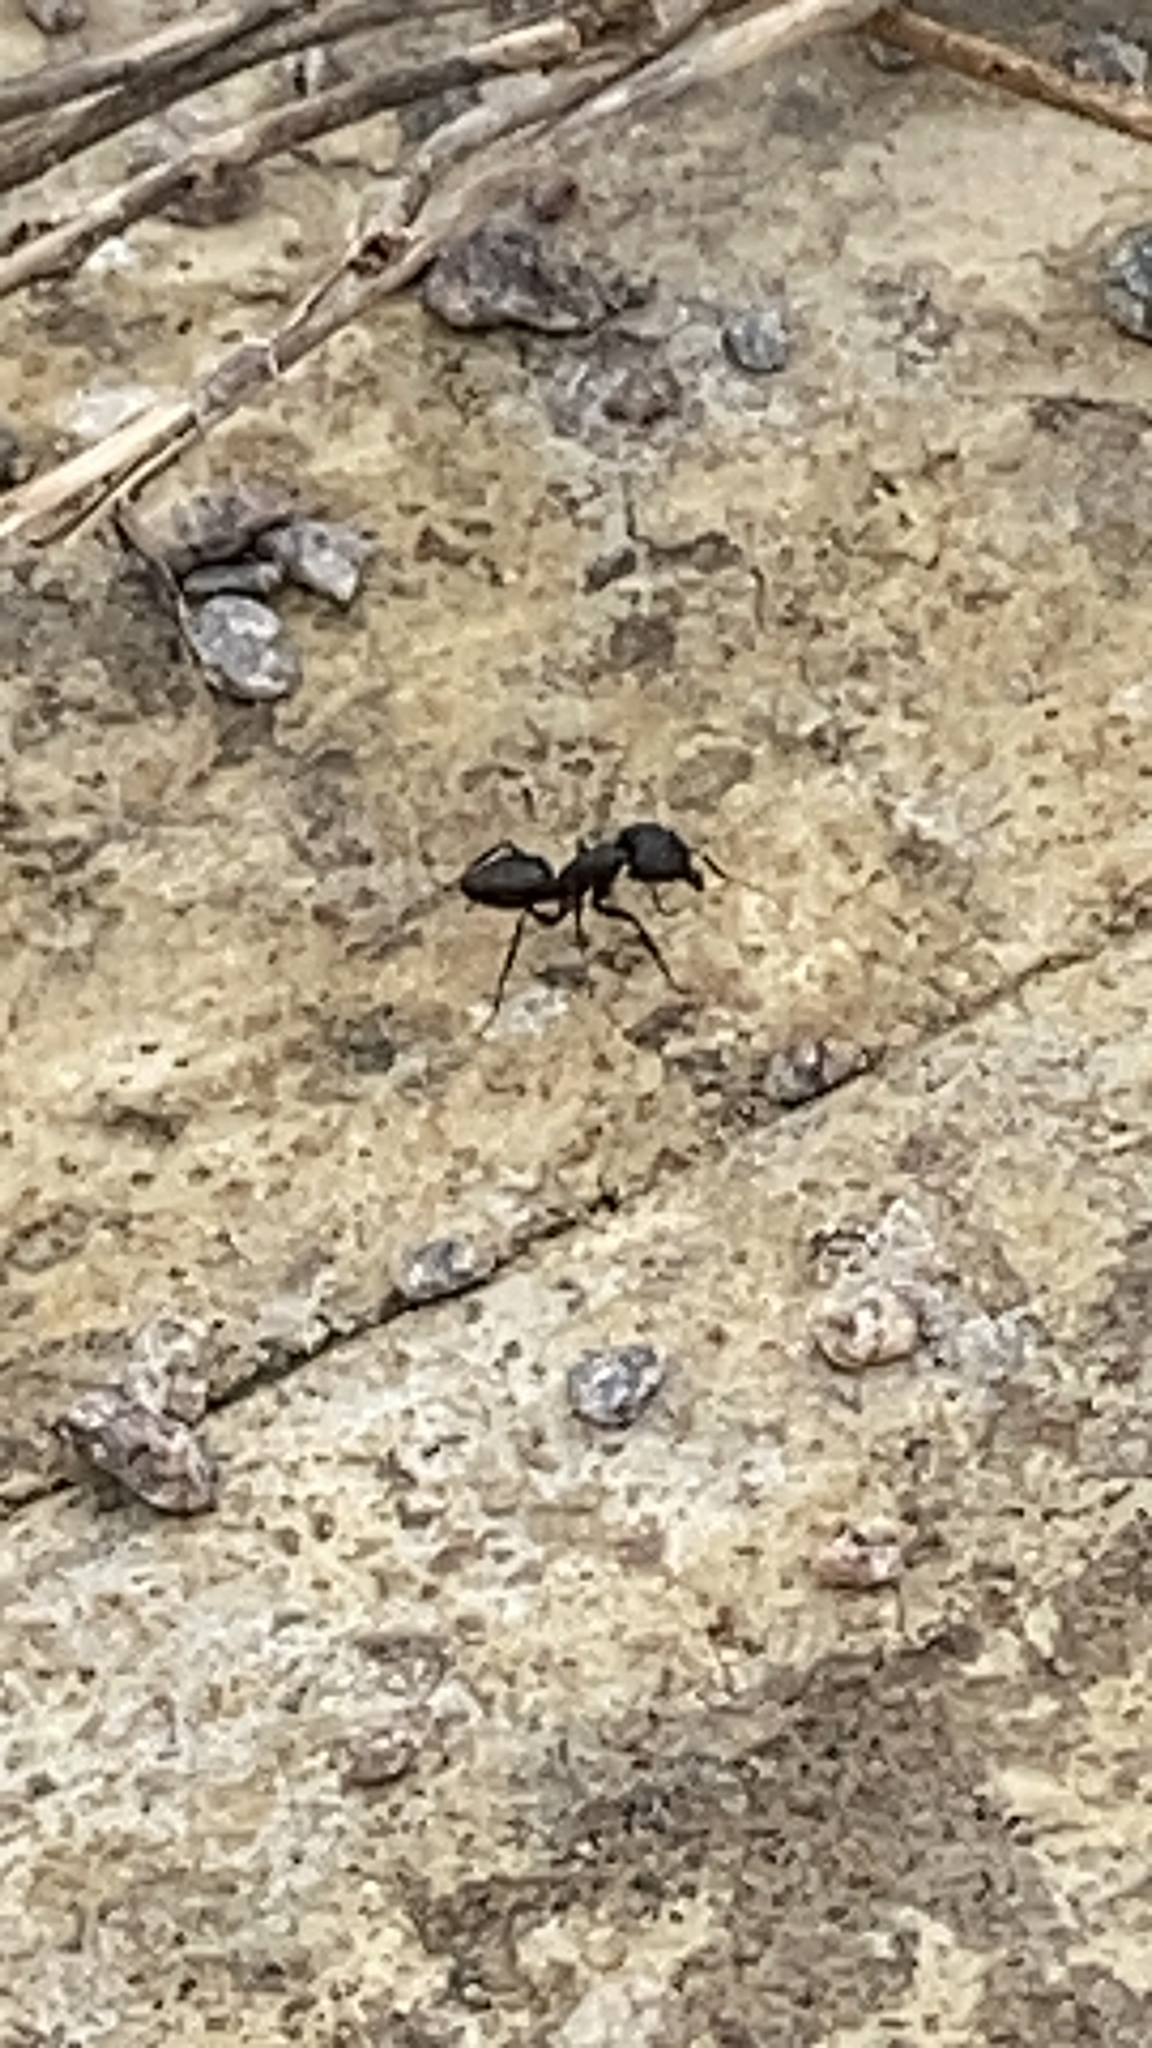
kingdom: Animalia
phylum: Arthropoda
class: Insecta
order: Hymenoptera
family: Formicidae
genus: Camponotus
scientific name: Camponotus compressus
